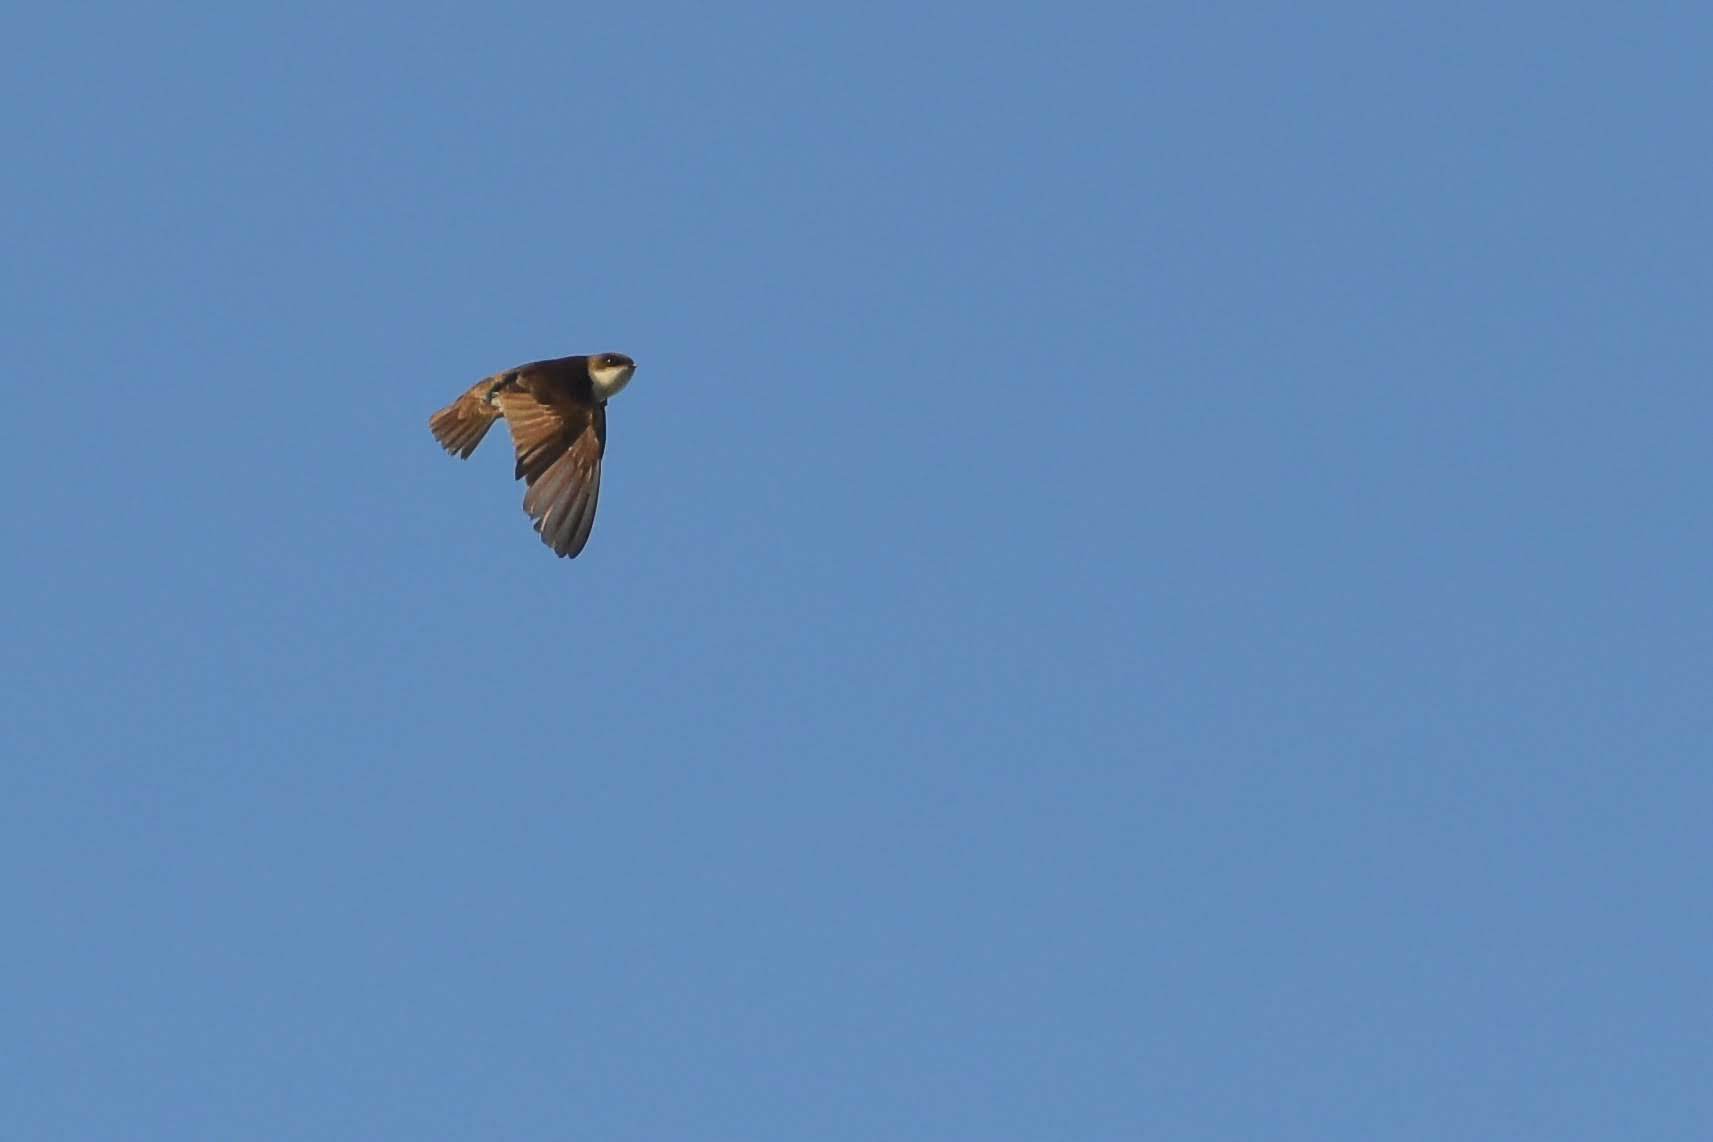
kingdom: Animalia
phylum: Chordata
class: Aves
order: Passeriformes
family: Hirundinidae
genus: Notiochelidon
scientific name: Notiochelidon cyanoleuca
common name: Blue-and-white swallow
